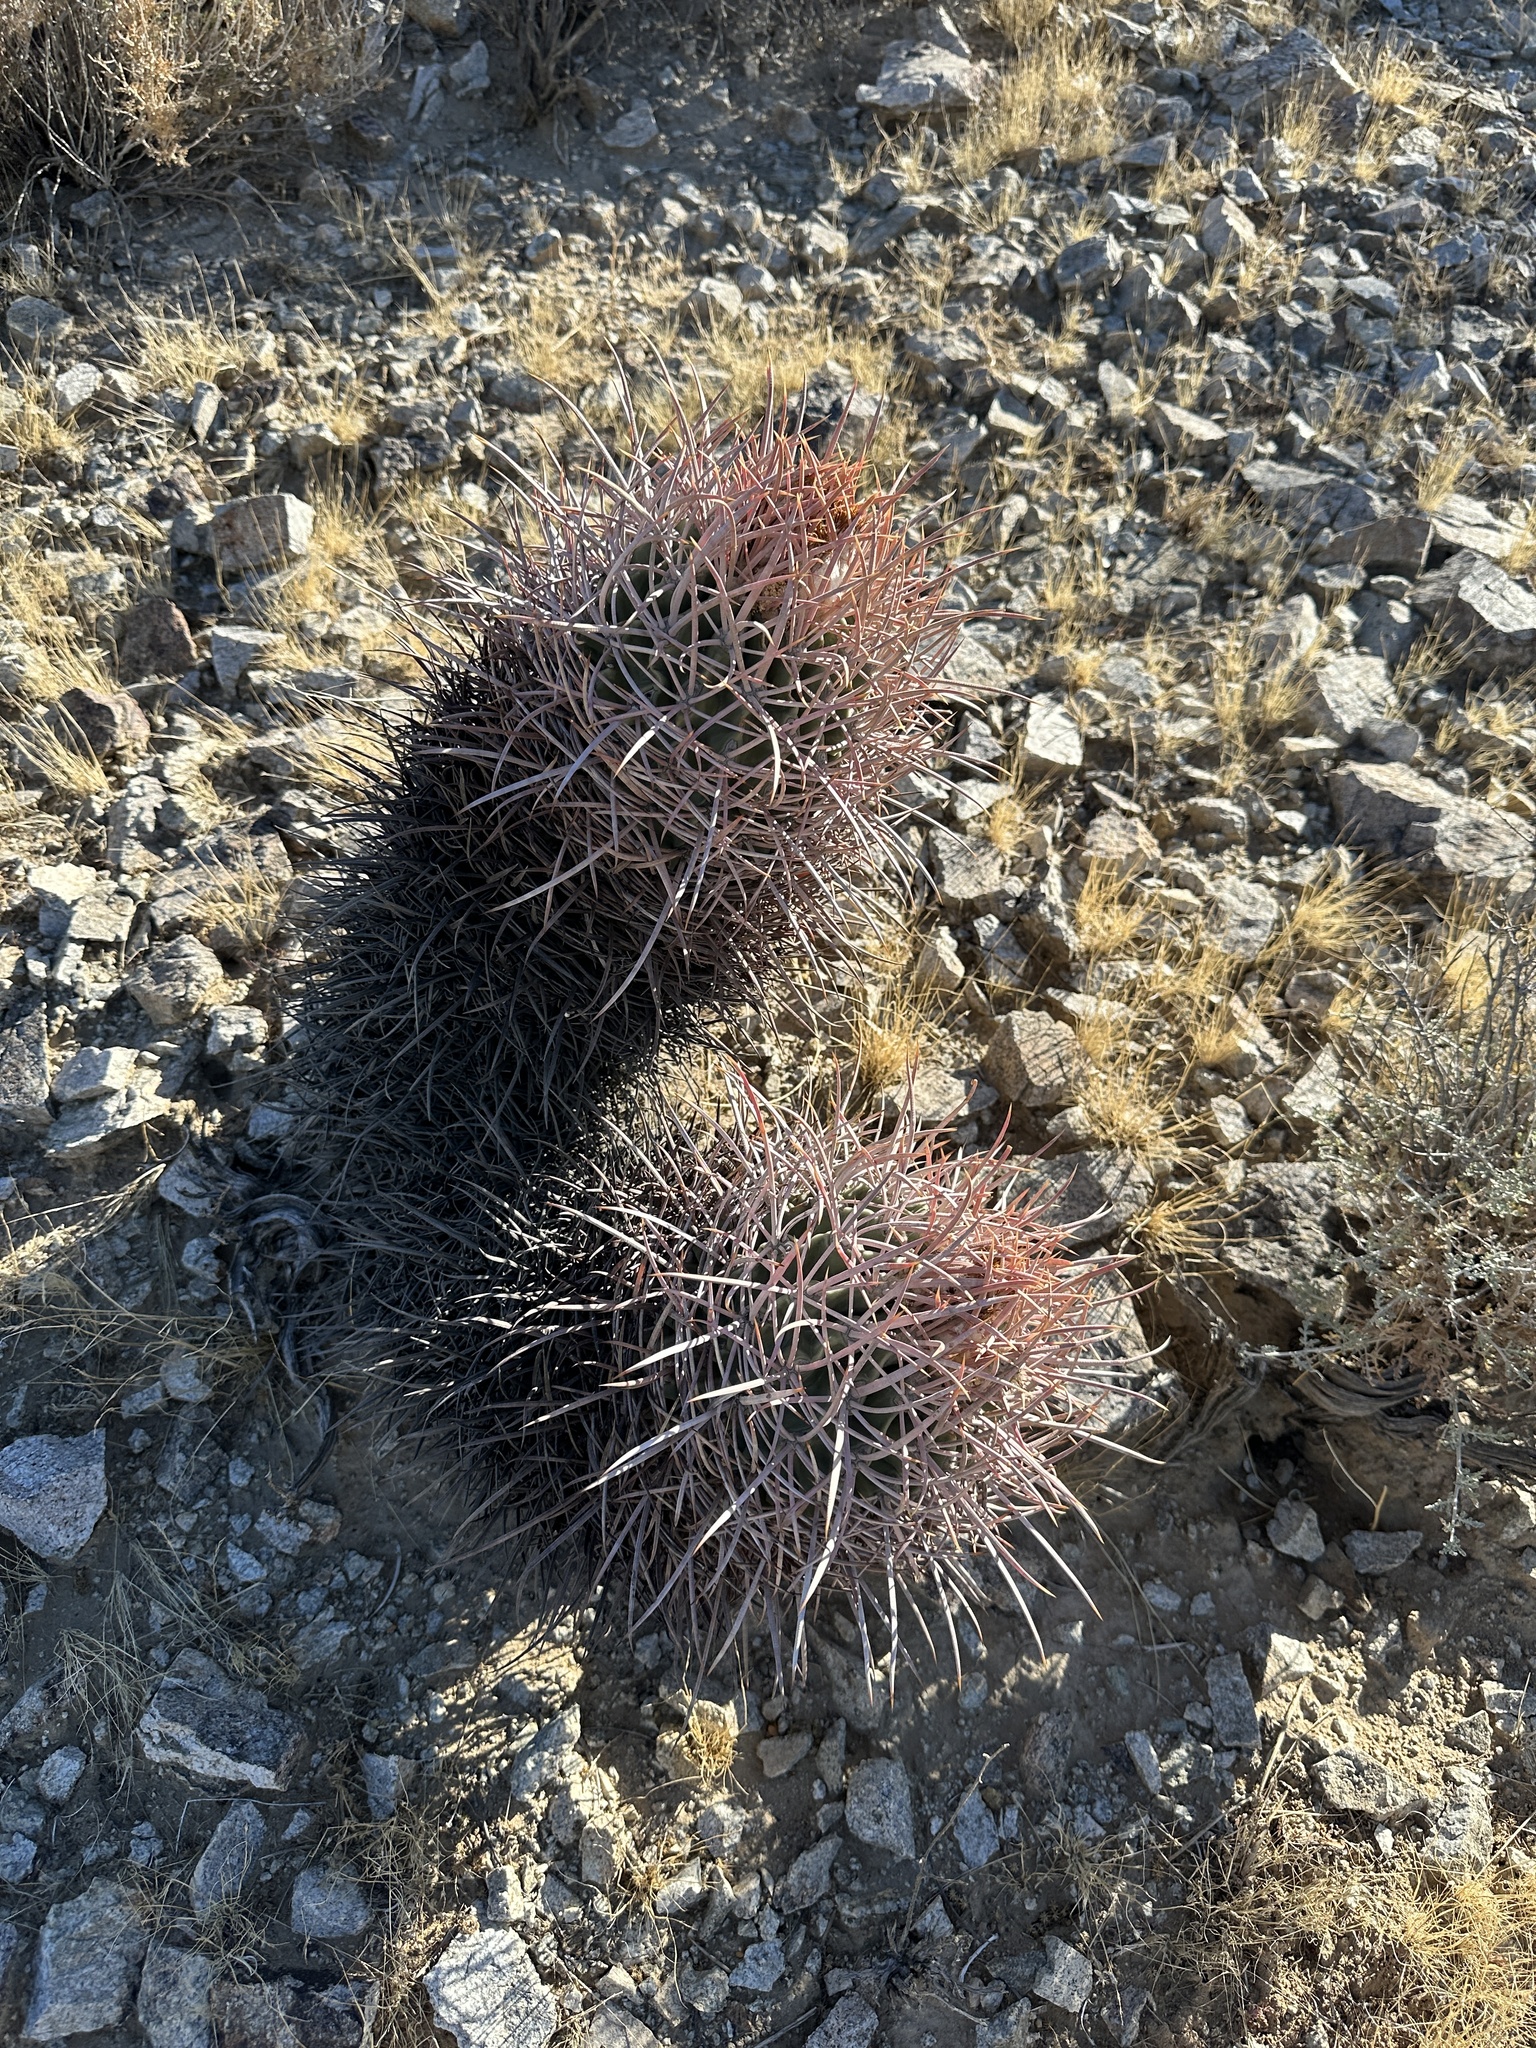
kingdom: Plantae
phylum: Tracheophyta
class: Magnoliopsida
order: Caryophyllales
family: Cactaceae
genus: Echinocactus
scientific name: Echinocactus polycephalus
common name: Cottontop cactus
